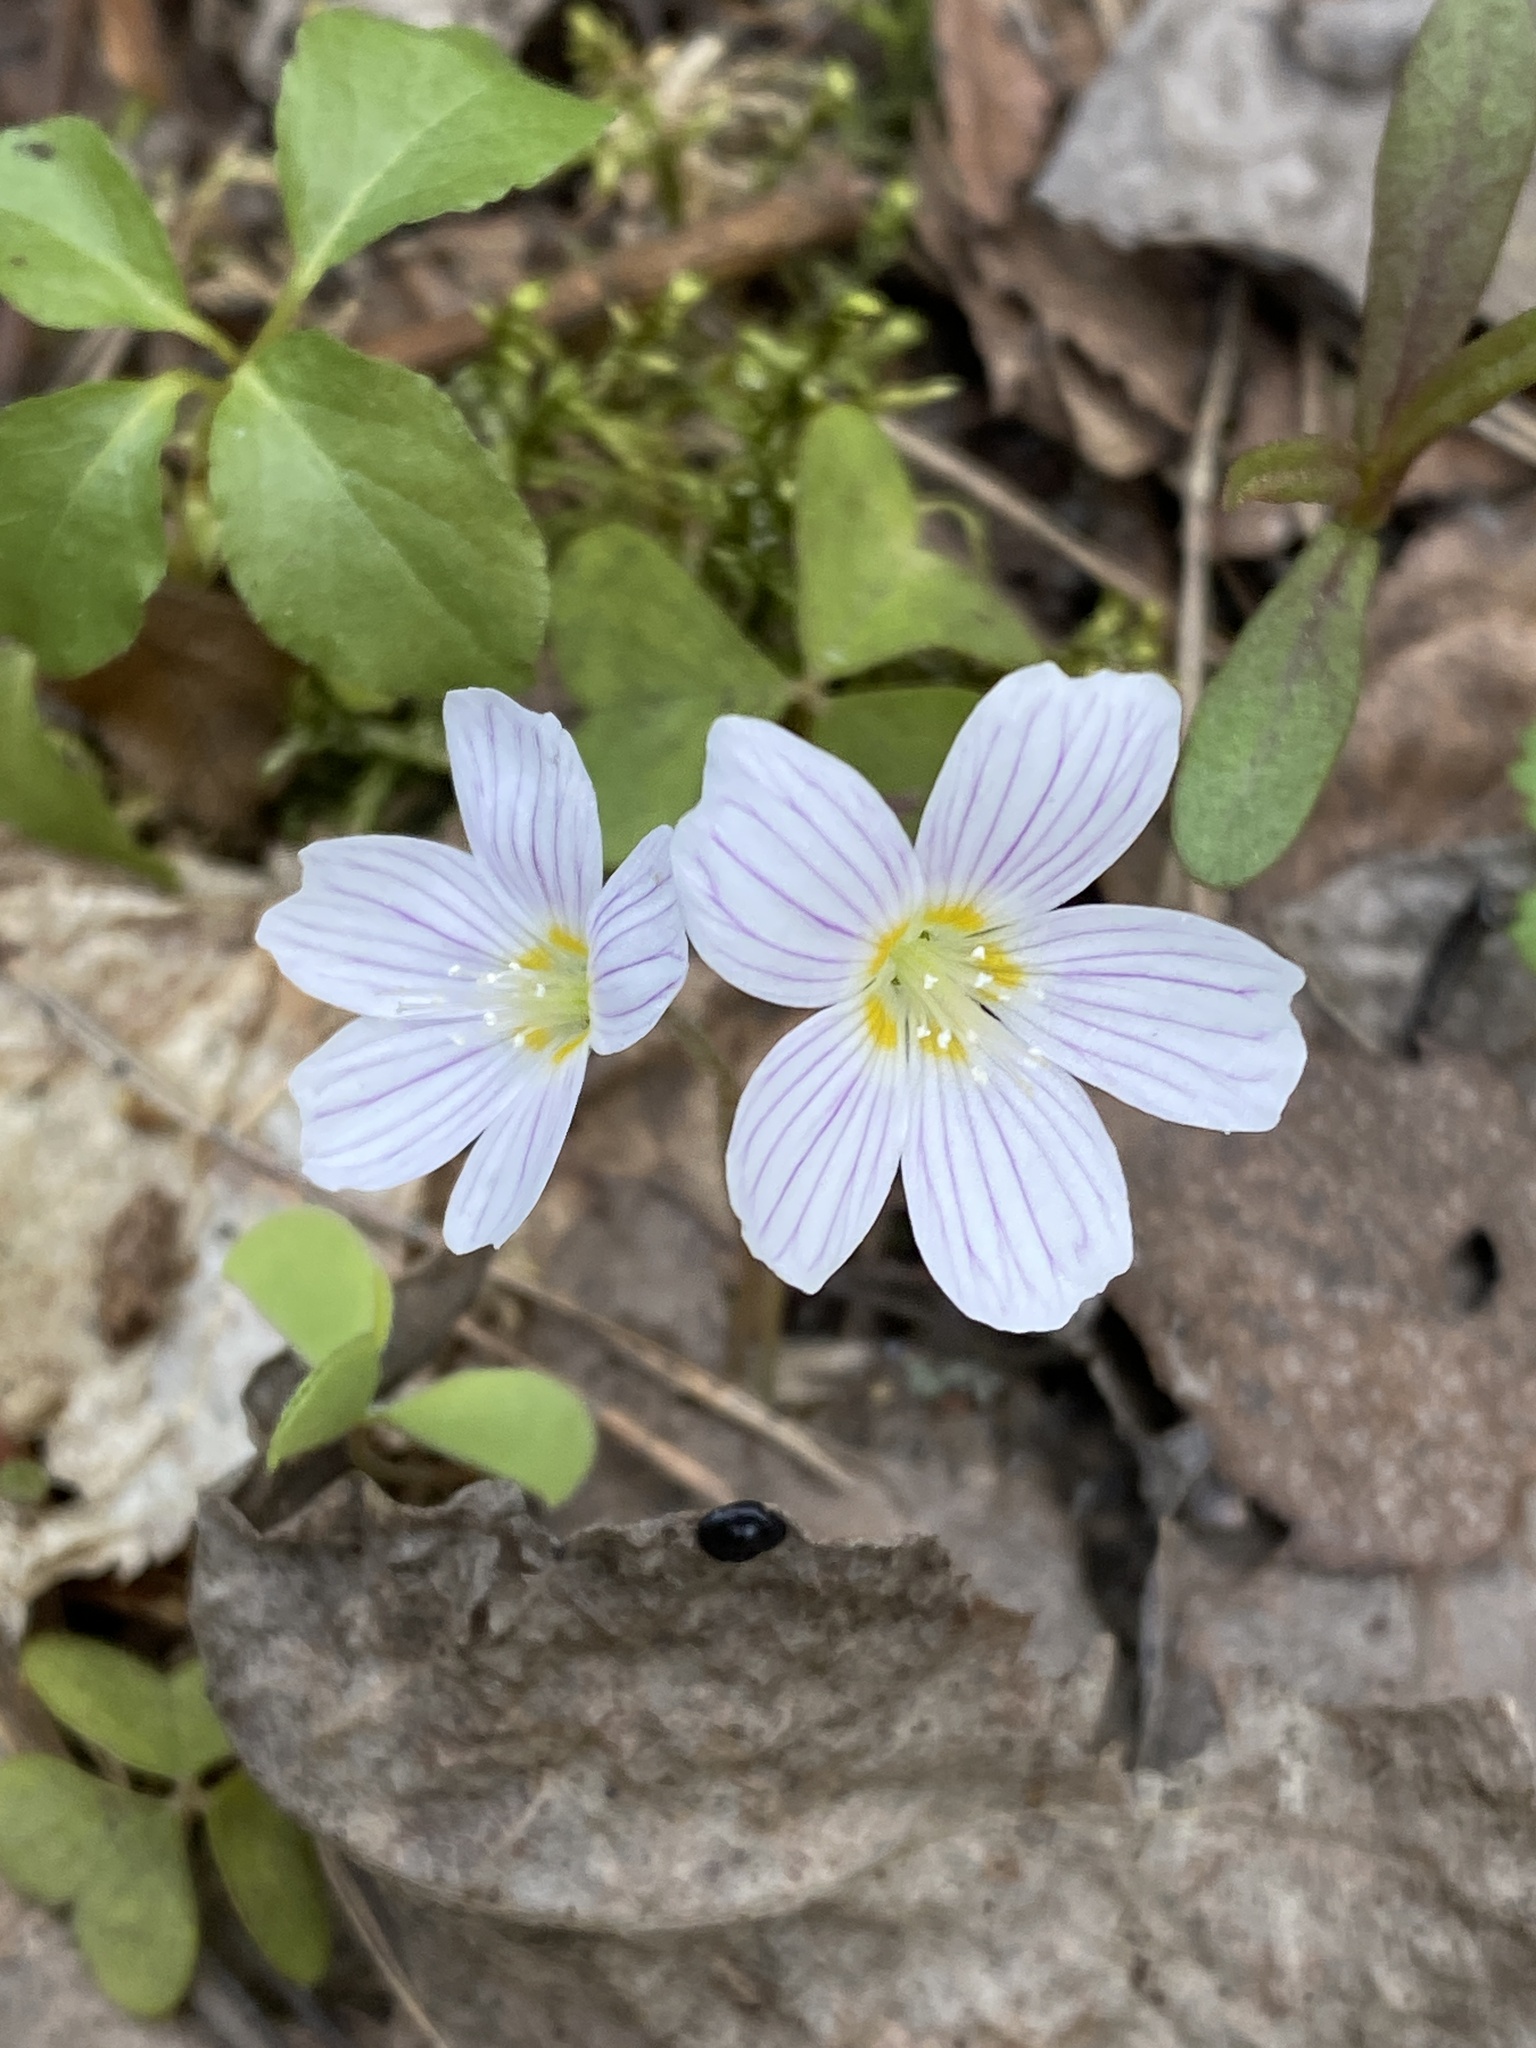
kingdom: Plantae
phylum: Tracheophyta
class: Magnoliopsida
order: Oxalidales
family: Oxalidaceae
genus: Oxalis
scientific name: Oxalis acetosella
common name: Wood-sorrel
